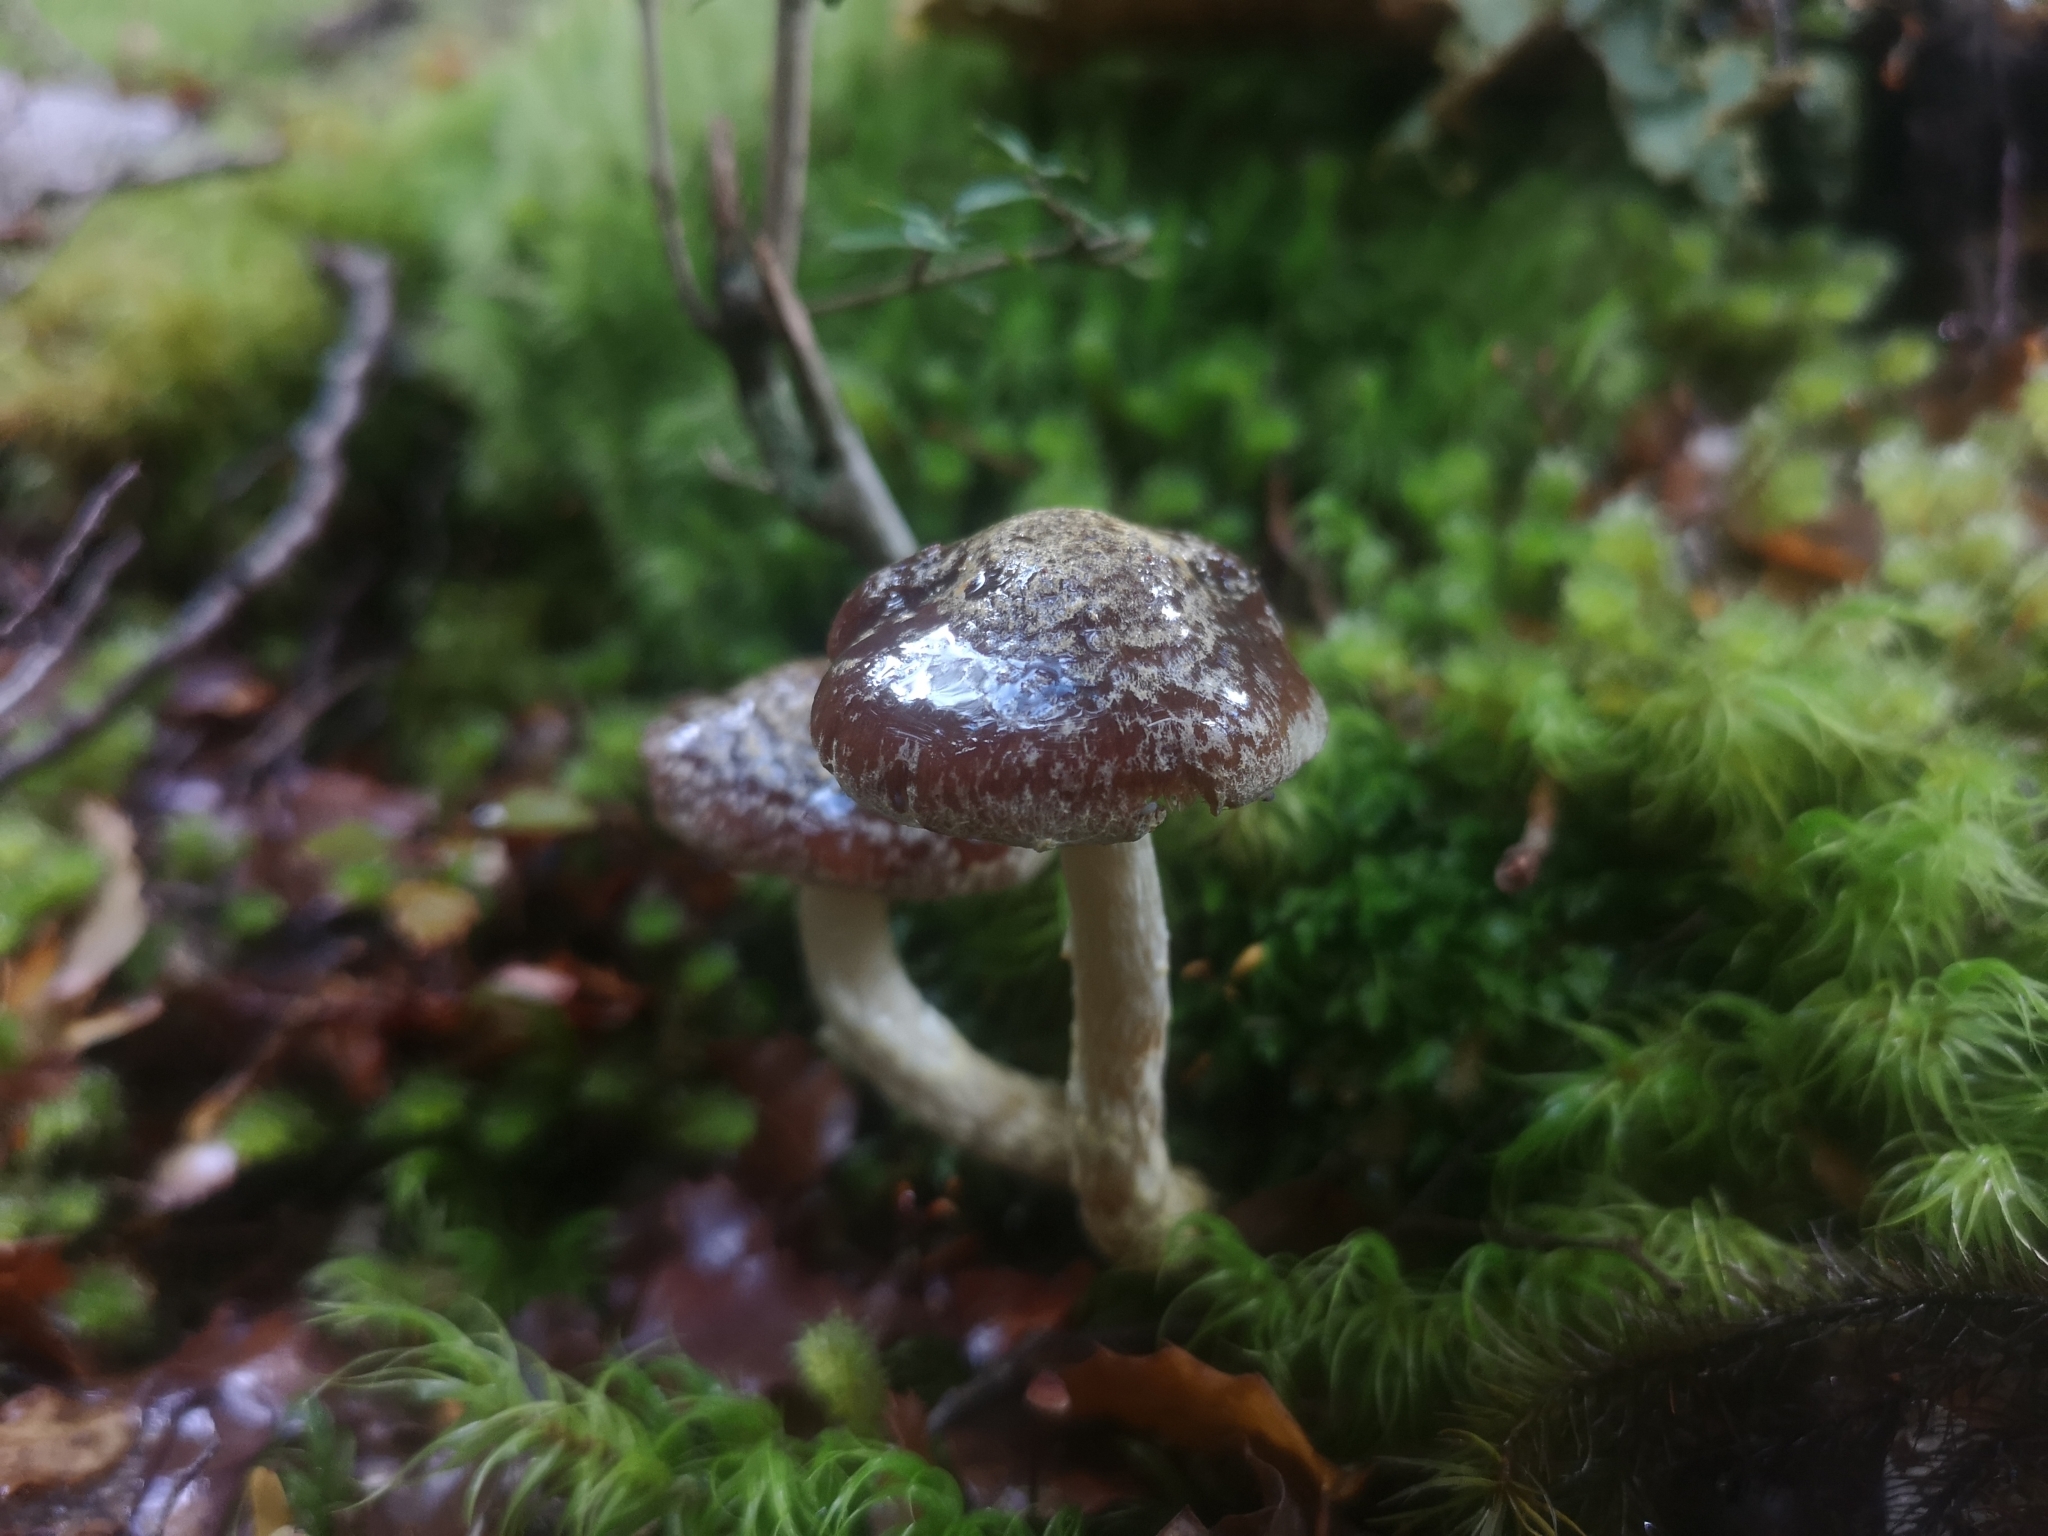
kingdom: Fungi
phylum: Basidiomycota
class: Agaricomycetes
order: Agaricales
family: Cortinariaceae
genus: Cortinarius
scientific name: Cortinarius phaeomyxa
